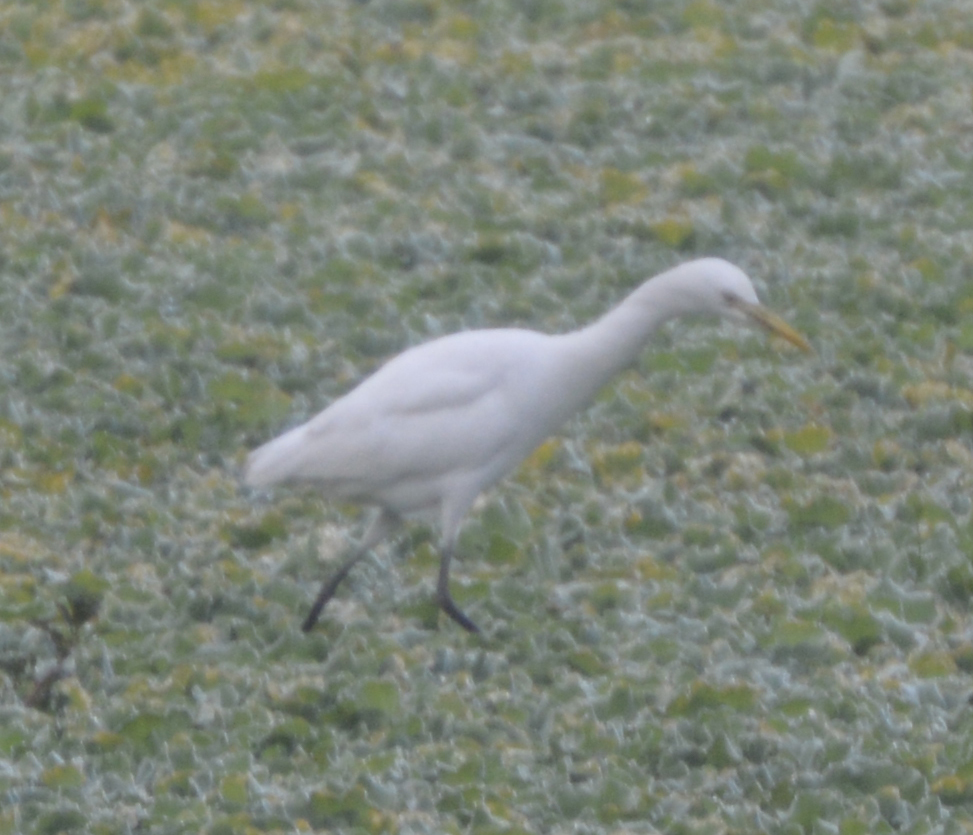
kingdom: Animalia
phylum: Chordata
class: Aves
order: Pelecaniformes
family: Ardeidae
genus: Bubulcus
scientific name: Bubulcus coromandus
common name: Eastern cattle egret
